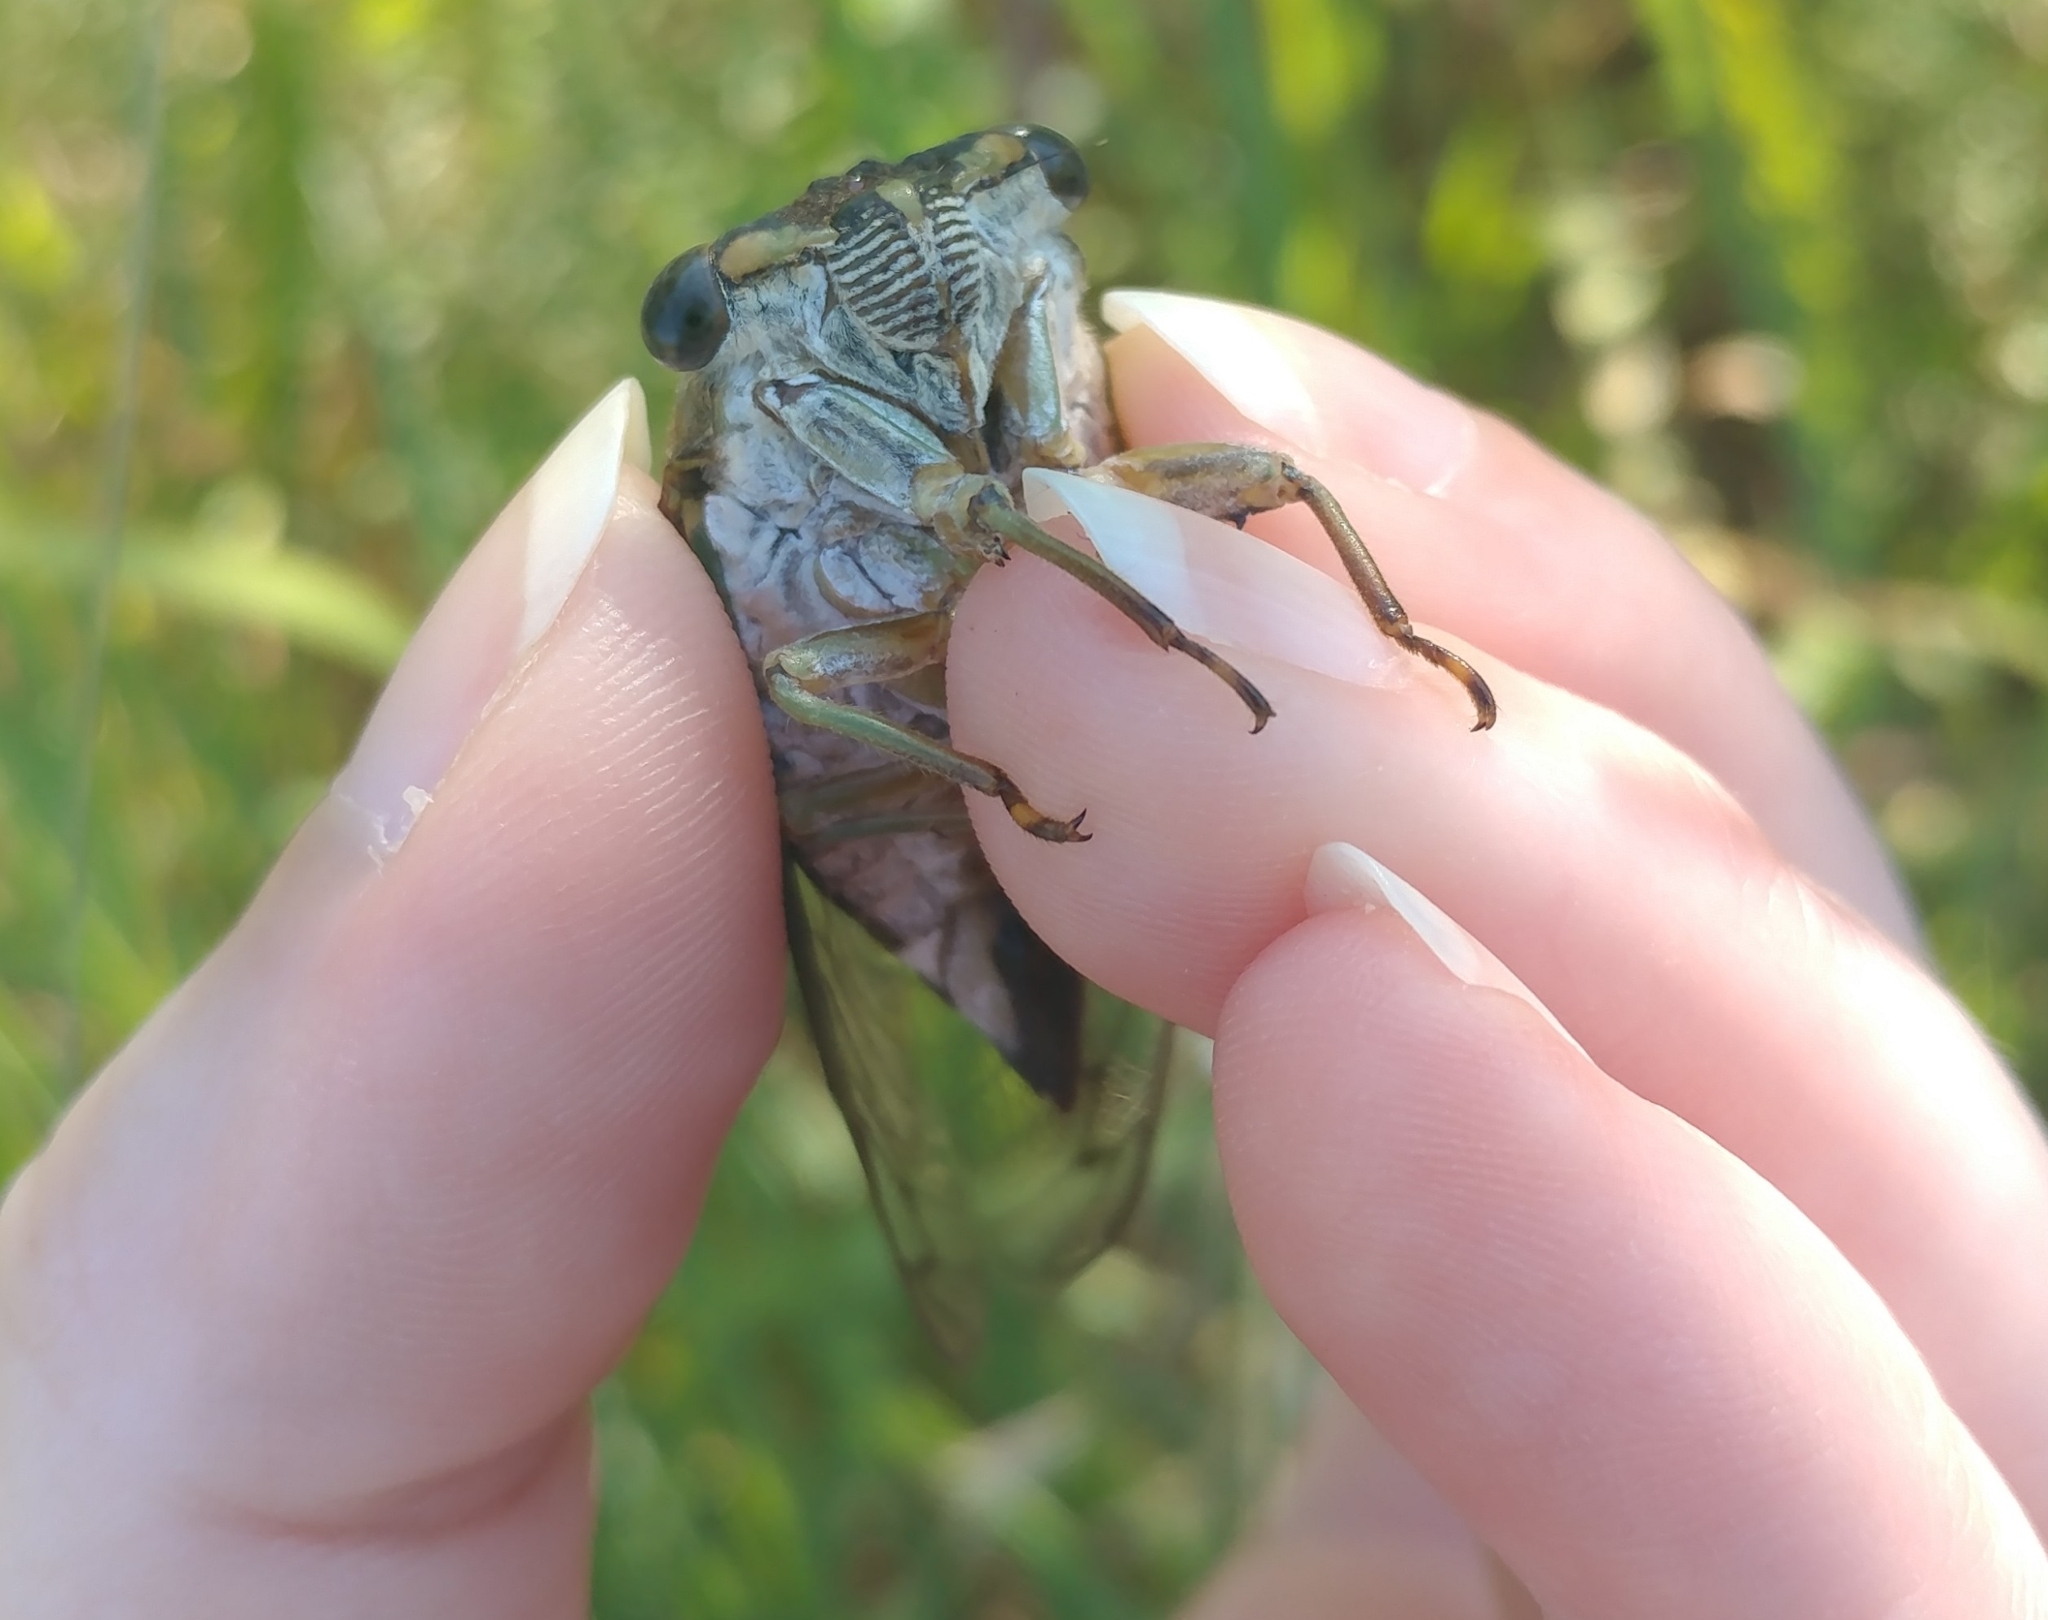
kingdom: Animalia
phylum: Arthropoda
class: Insecta
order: Hemiptera
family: Cicadidae
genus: Neotibicen
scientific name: Neotibicen pruinosus
